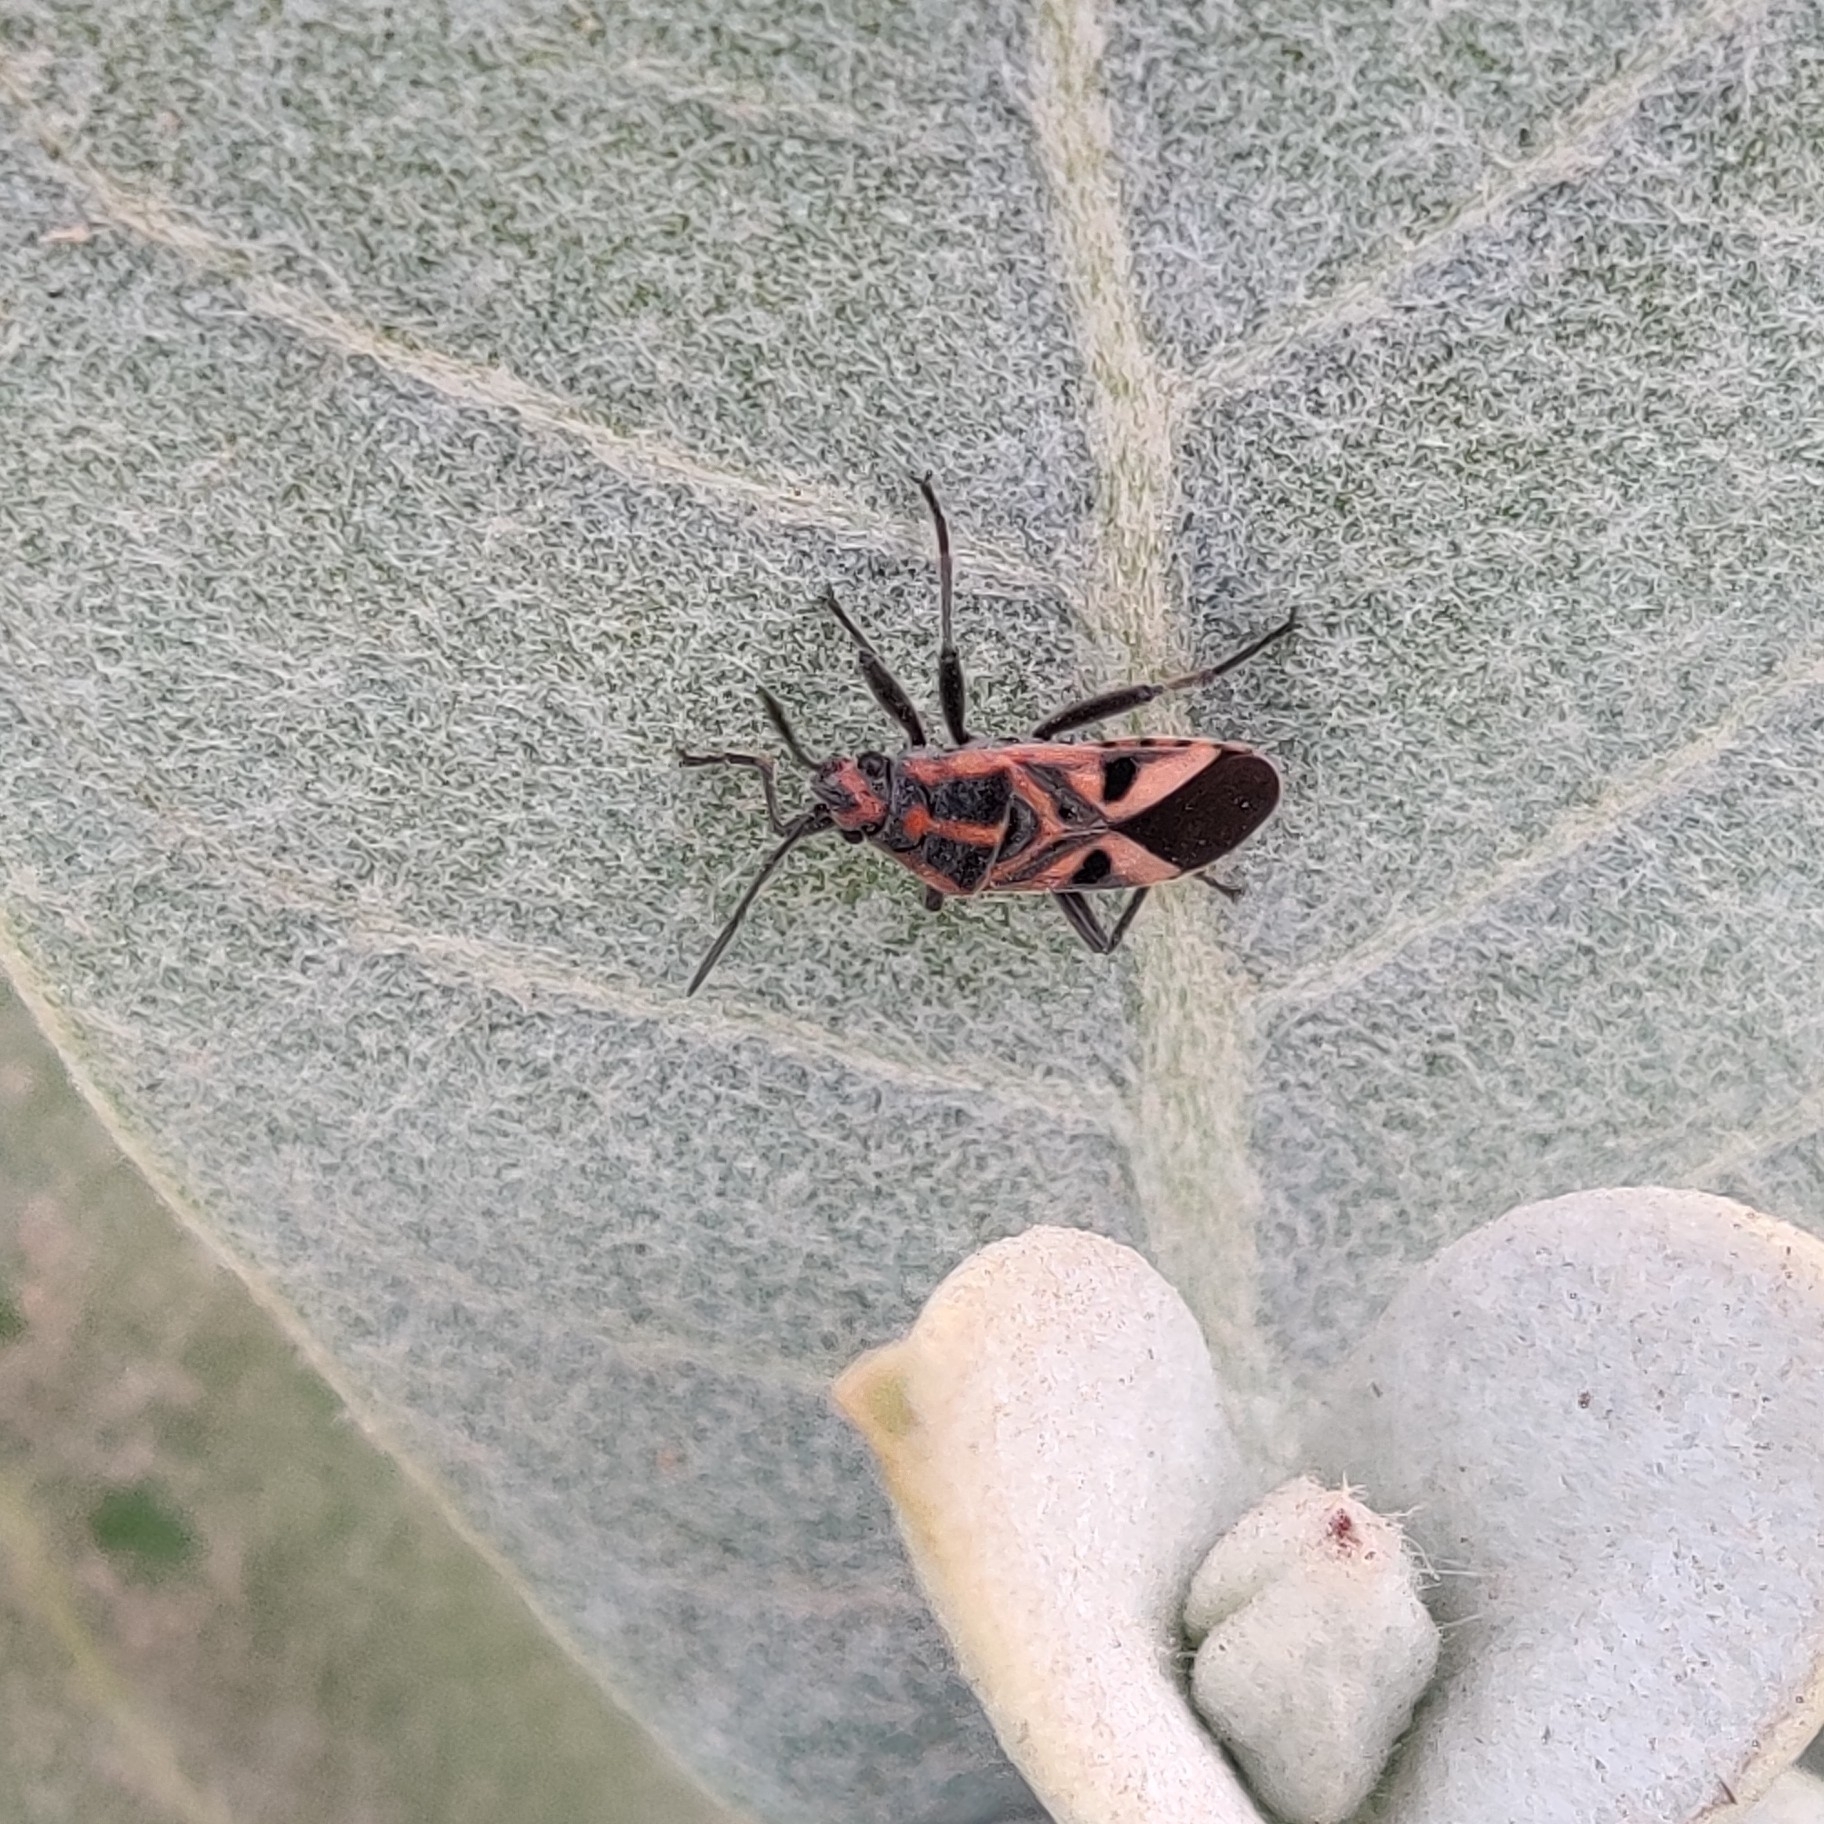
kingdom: Animalia
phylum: Arthropoda
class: Insecta
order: Hemiptera
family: Lygaeidae
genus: Spilostethus
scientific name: Spilostethus hospes
